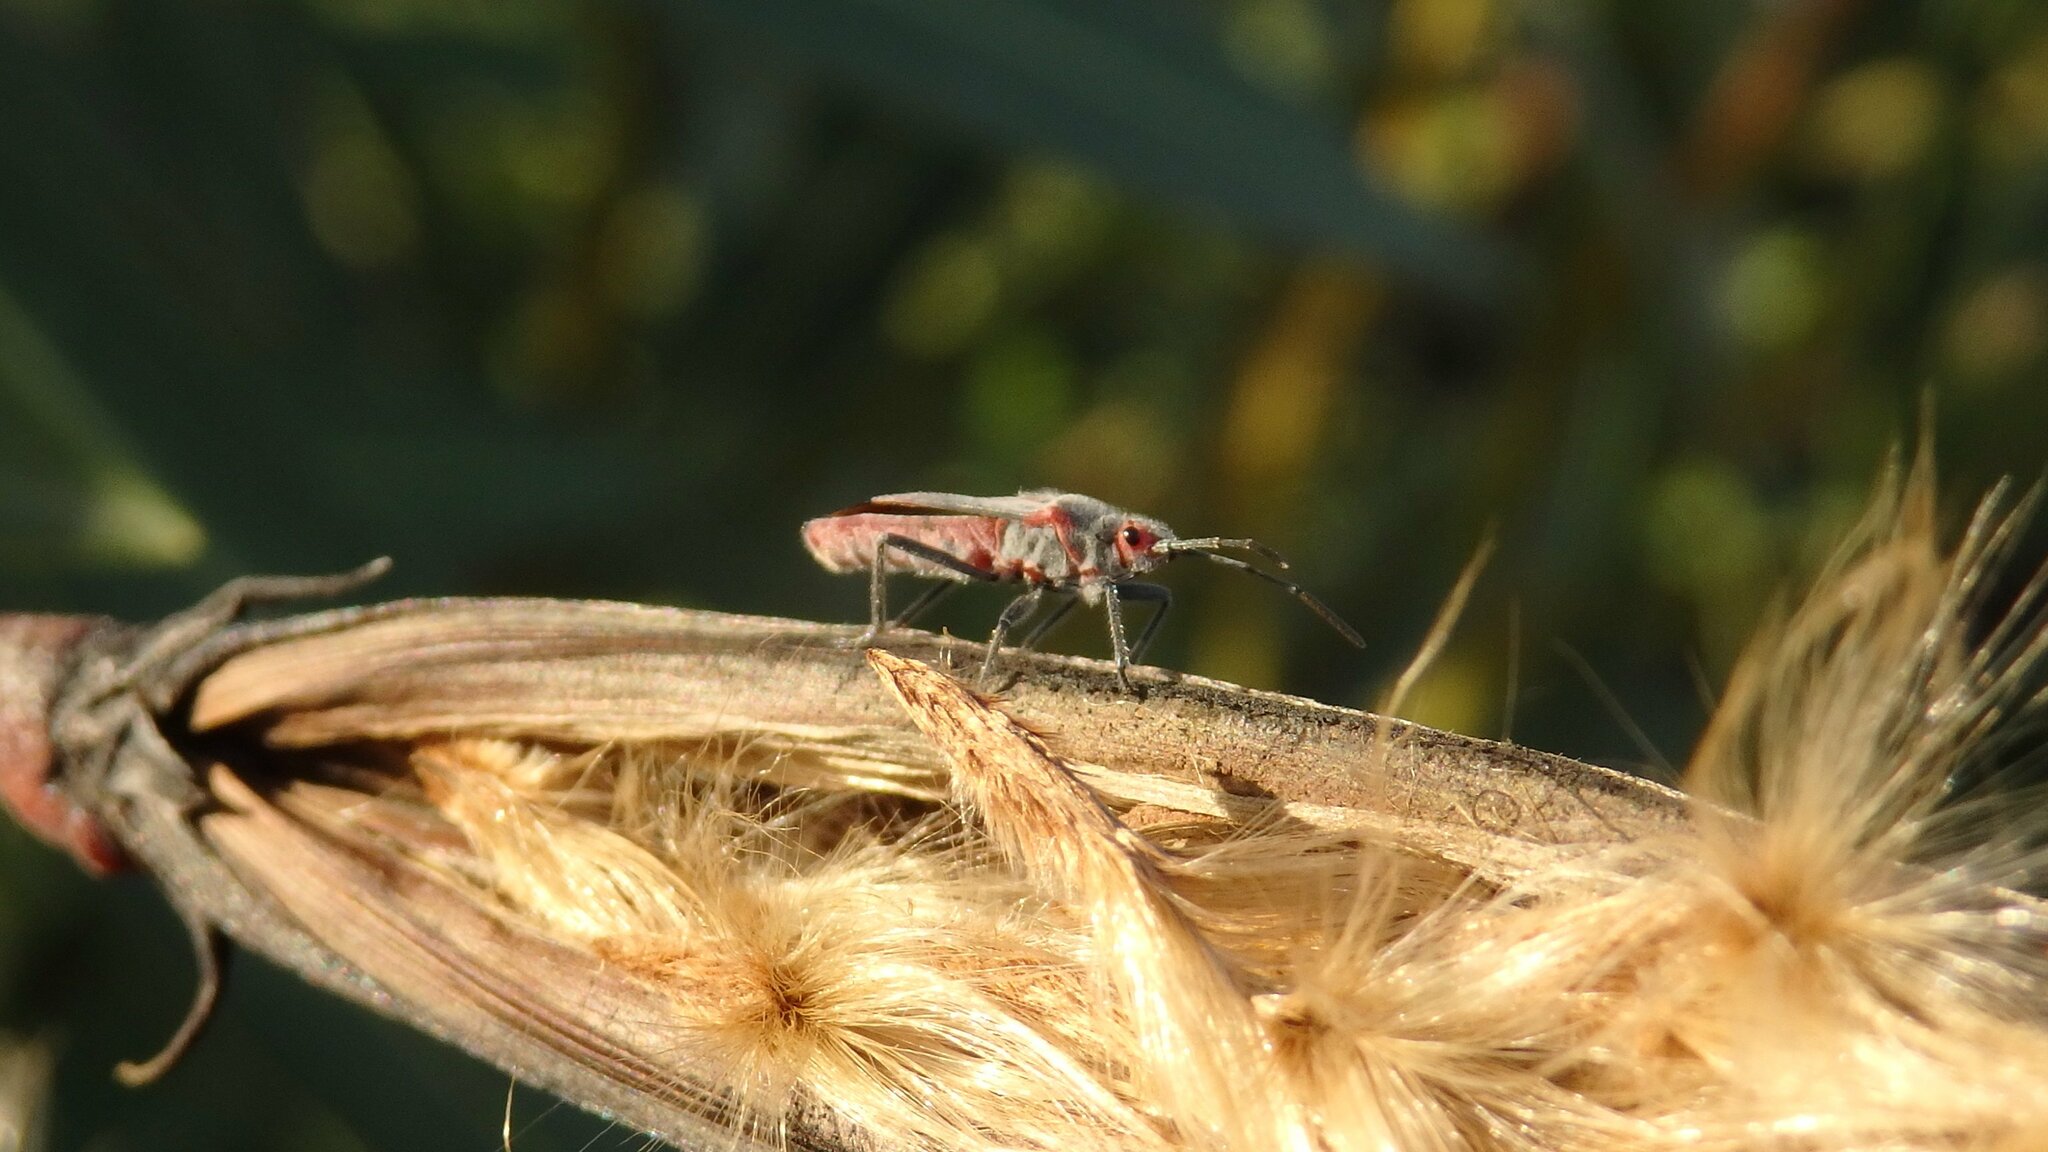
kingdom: Animalia
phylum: Arthropoda
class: Insecta
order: Hemiptera
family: Lygaeidae
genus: Caenocoris
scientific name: Caenocoris nerii
